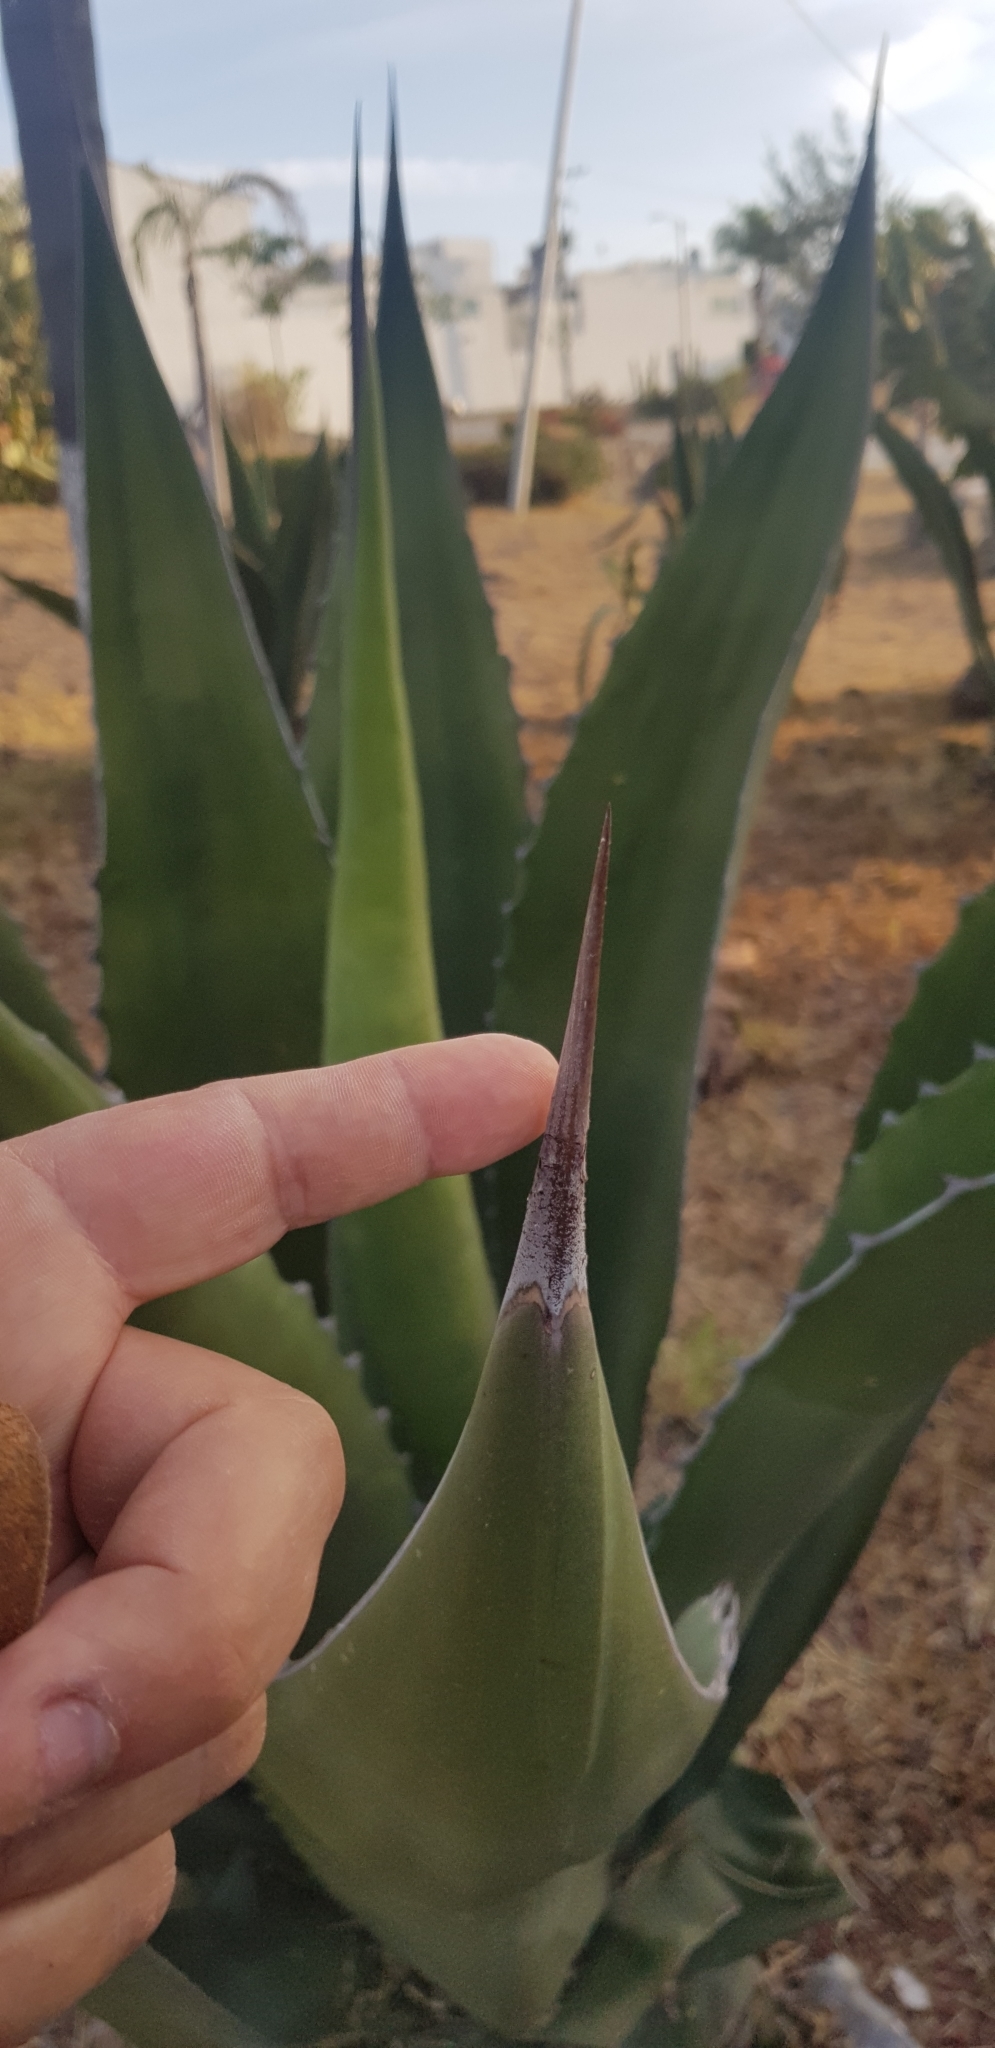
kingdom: Plantae
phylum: Tracheophyta
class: Liliopsida
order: Asparagales
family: Asparagaceae
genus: Agave
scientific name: Agave salmiana
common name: Pulque agave
